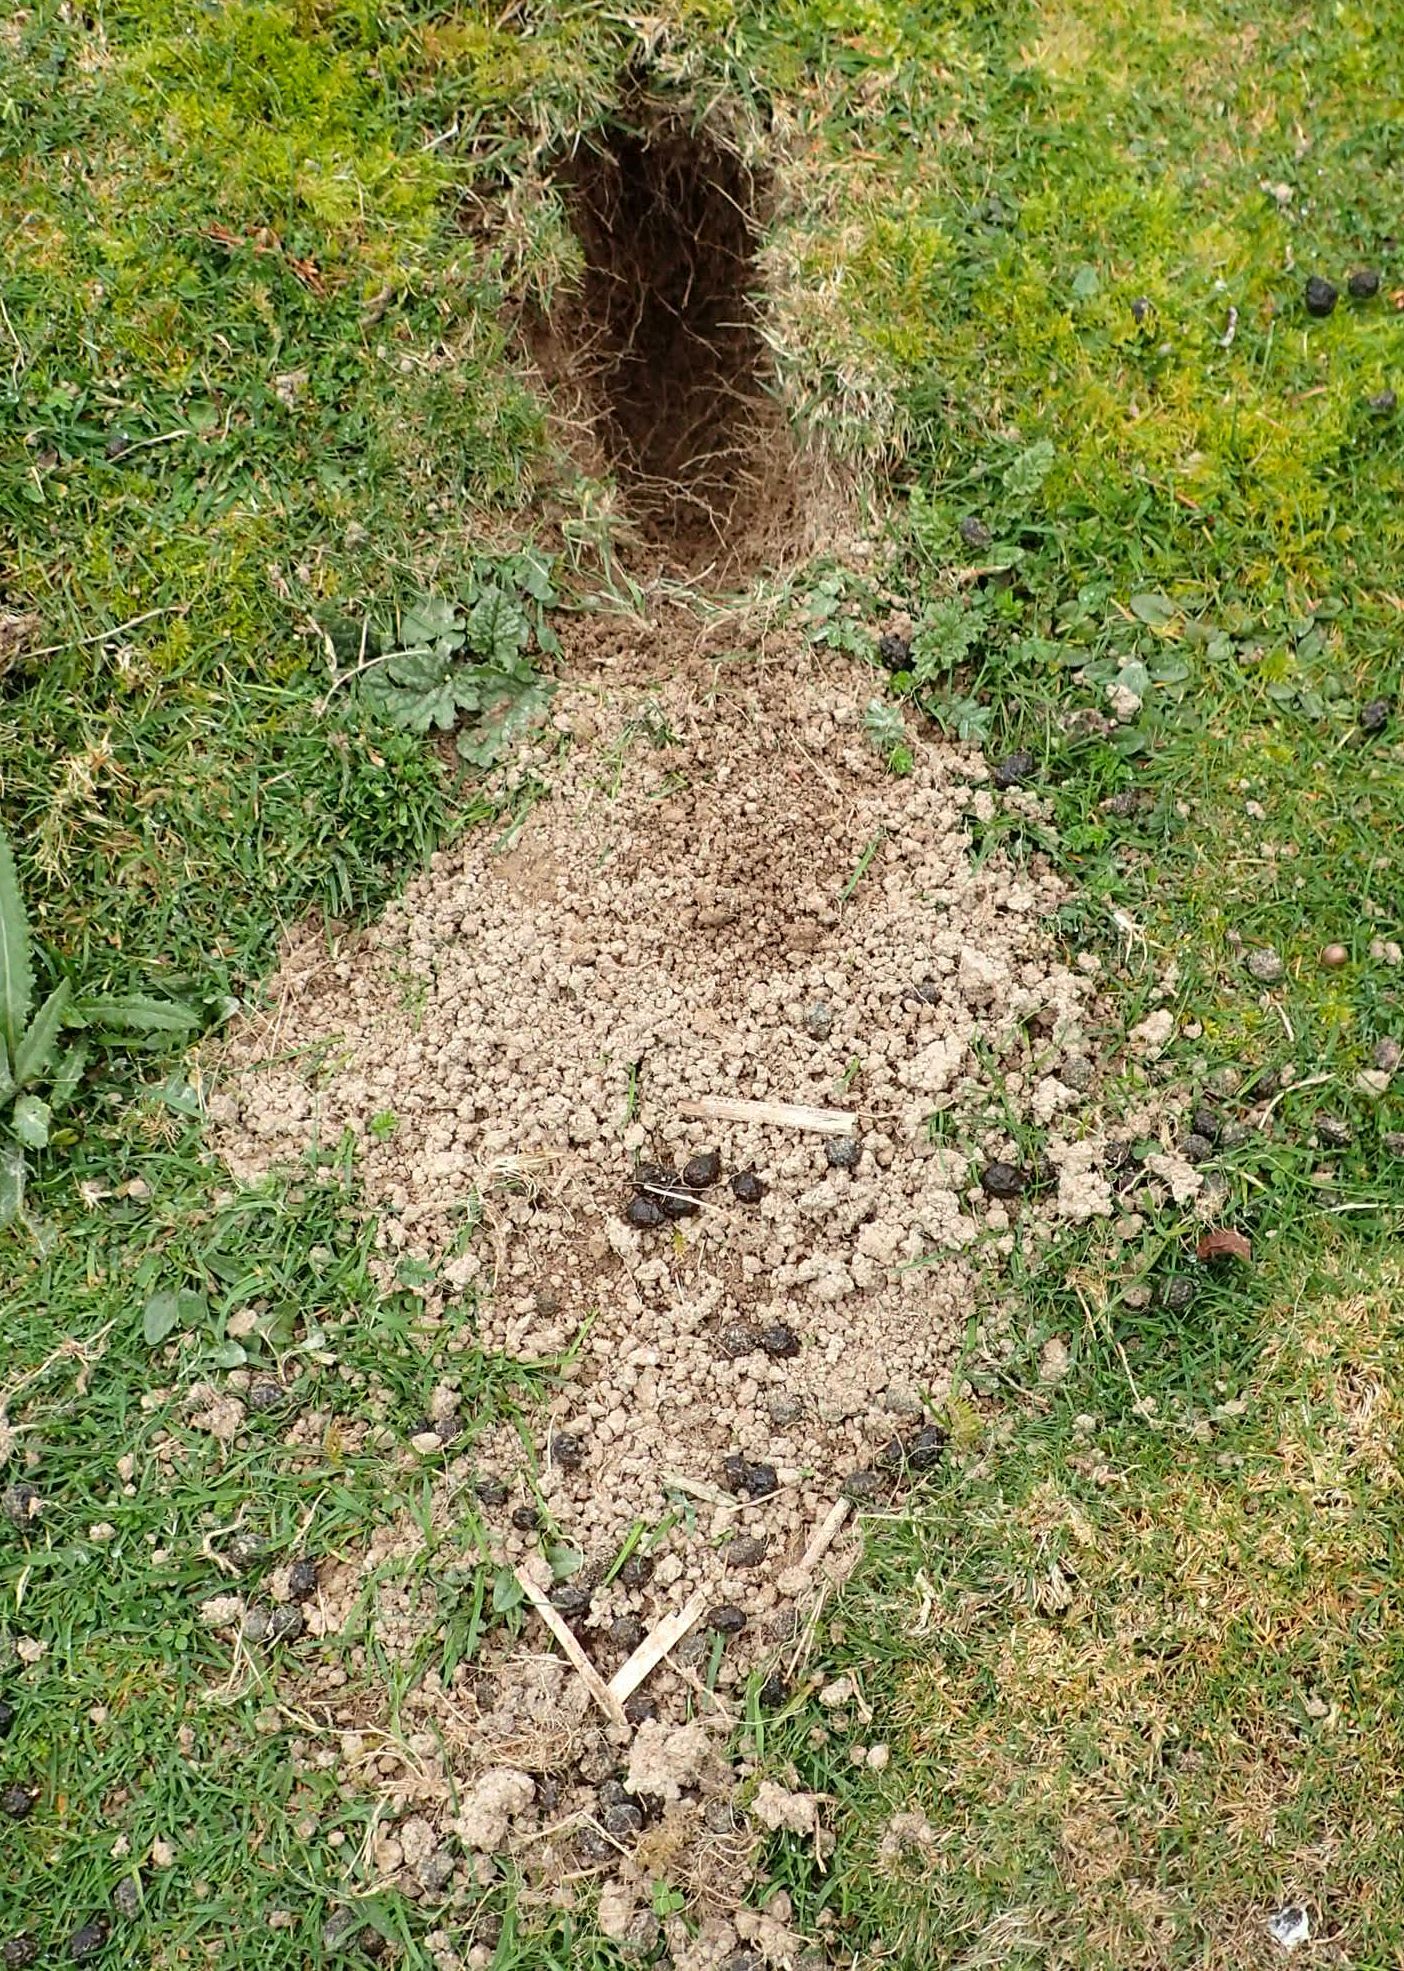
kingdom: Animalia
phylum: Chordata
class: Mammalia
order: Lagomorpha
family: Leporidae
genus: Oryctolagus
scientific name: Oryctolagus cuniculus
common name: European rabbit
